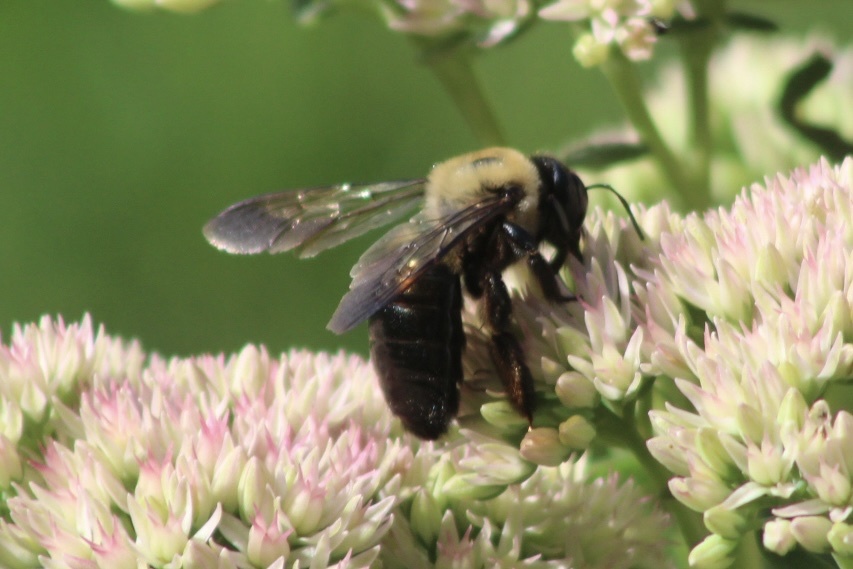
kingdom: Animalia
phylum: Arthropoda
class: Insecta
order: Hymenoptera
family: Apidae
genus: Xylocopa
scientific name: Xylocopa virginica
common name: Carpenter bee
